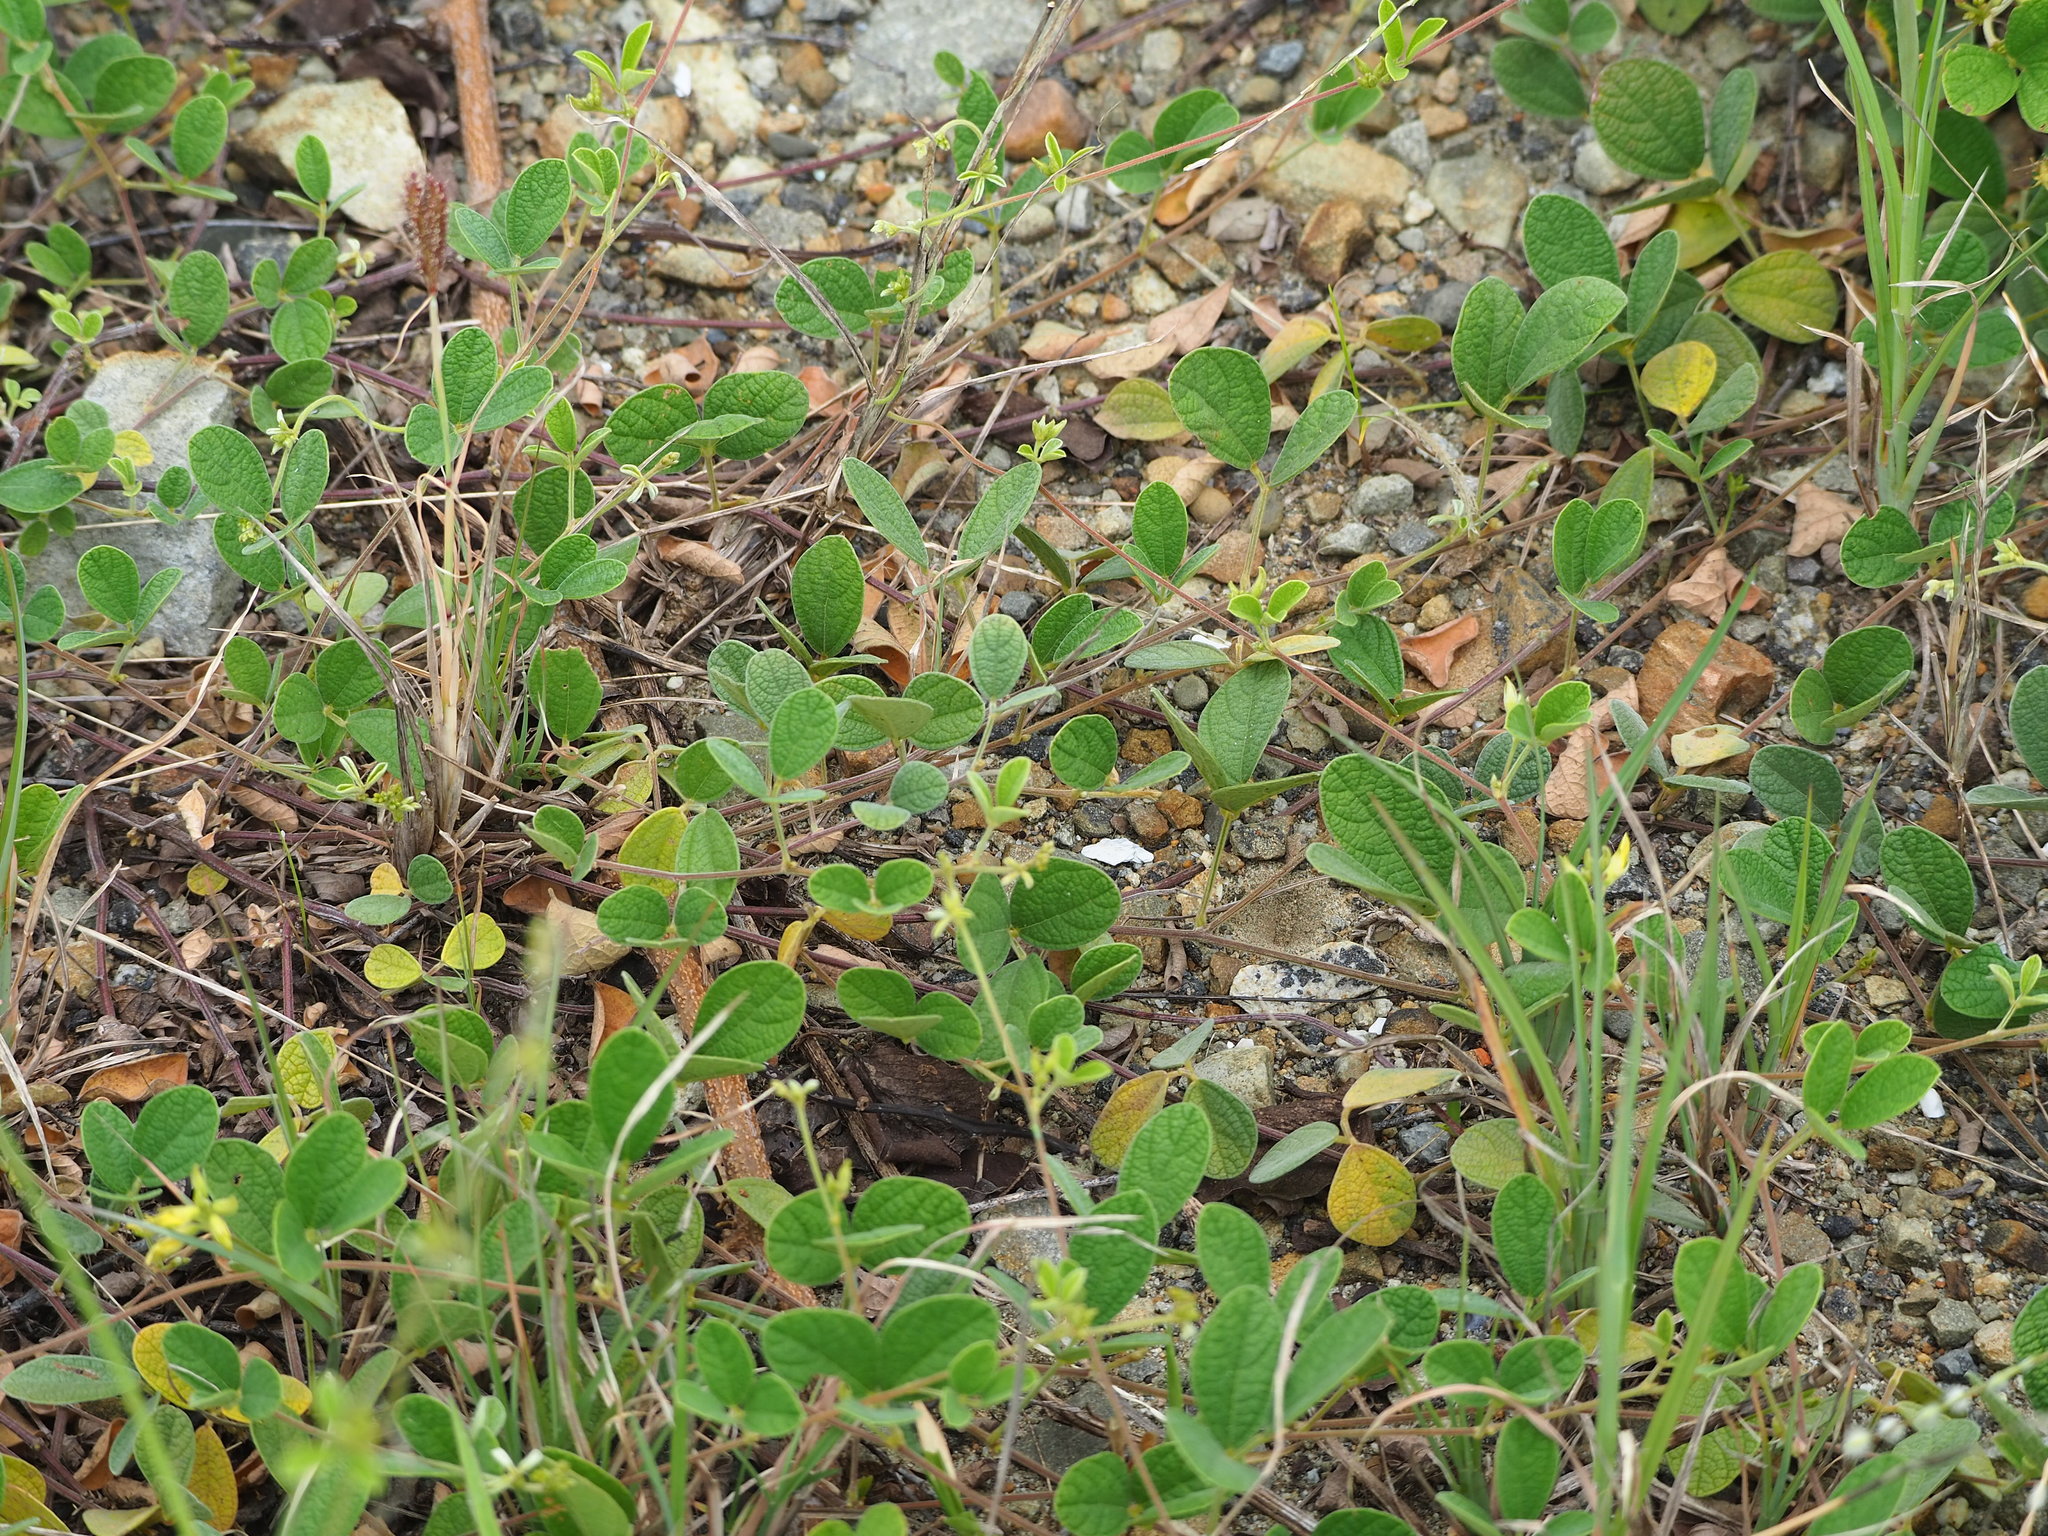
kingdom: Plantae
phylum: Tracheophyta
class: Magnoliopsida
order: Fabales
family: Fabaceae
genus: Cajanus
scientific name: Cajanus scarabaeoides
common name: Showy pigeonpea
